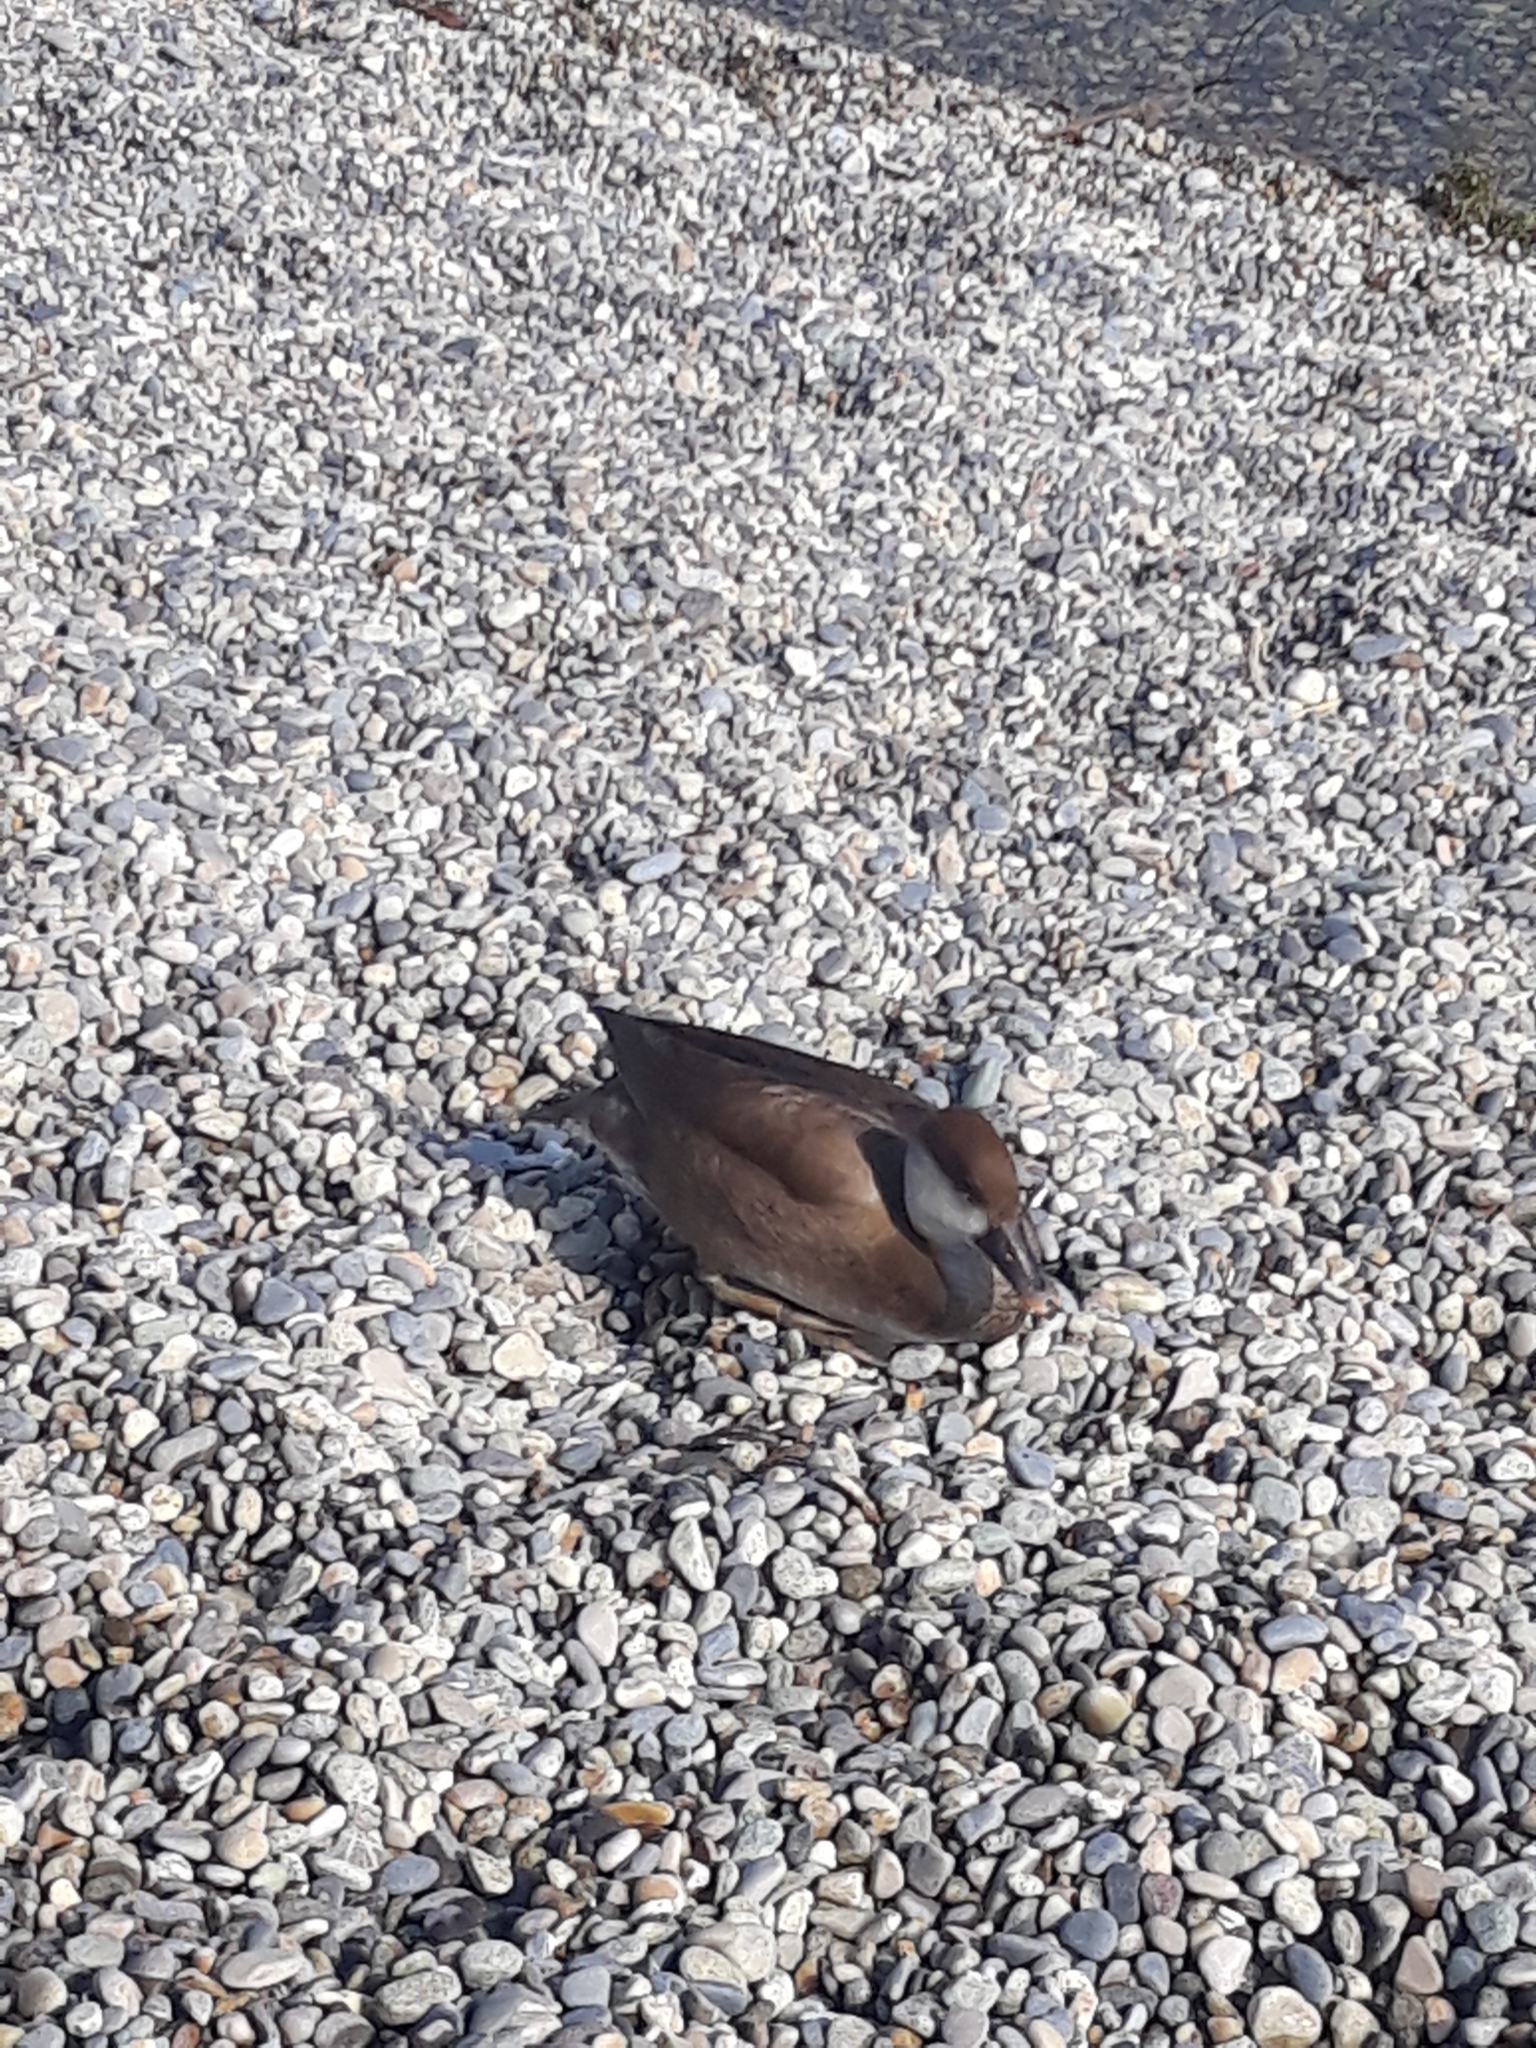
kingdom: Animalia
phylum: Chordata
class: Aves
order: Anseriformes
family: Anatidae
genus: Netta
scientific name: Netta rufina
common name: Red-crested pochard
